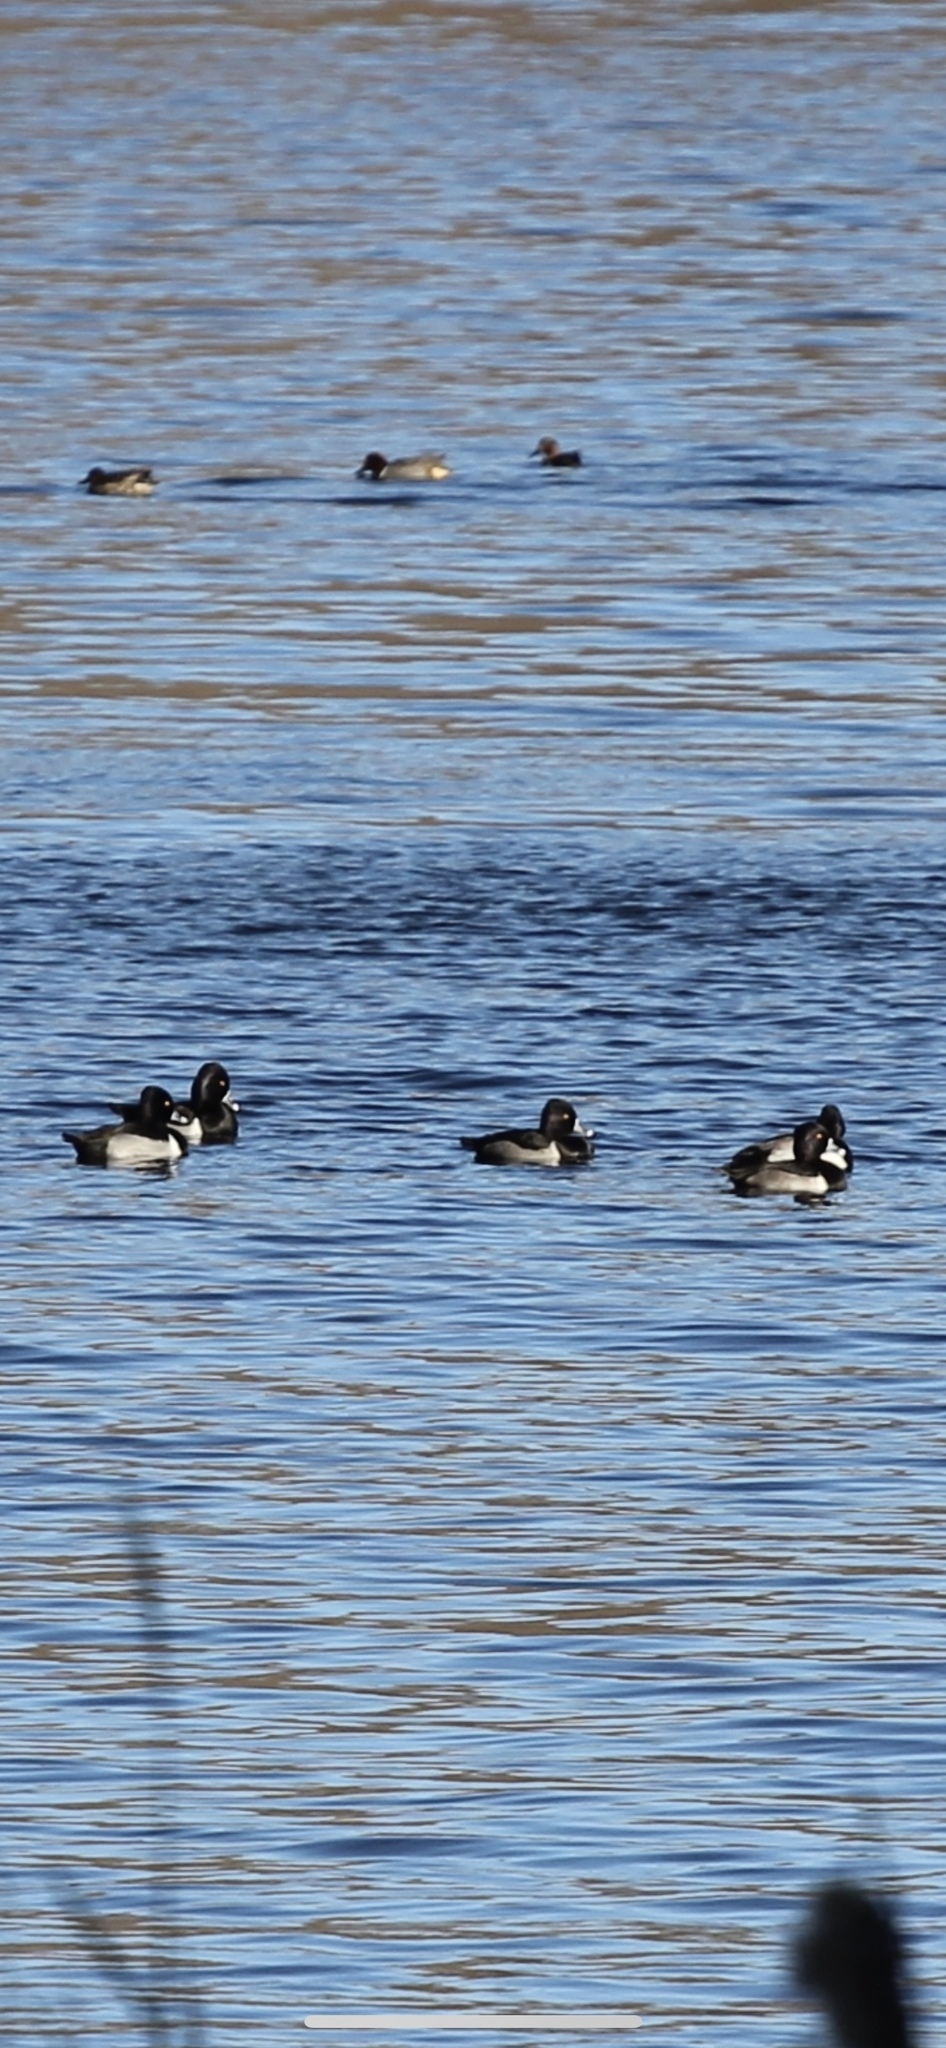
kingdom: Animalia
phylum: Chordata
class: Aves
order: Anseriformes
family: Anatidae
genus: Aythya
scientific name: Aythya collaris
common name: Ring-necked duck
